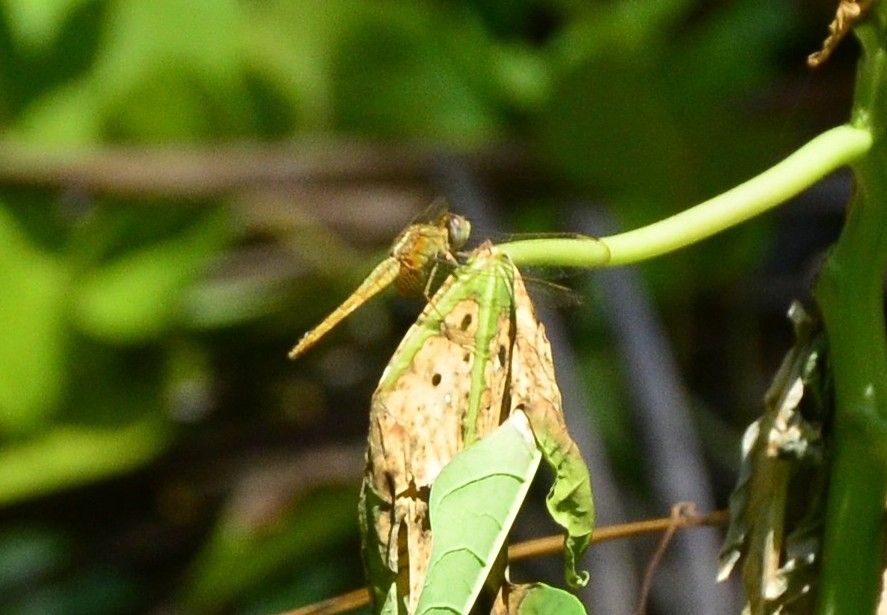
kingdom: Animalia
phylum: Arthropoda
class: Insecta
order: Odonata
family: Libellulidae
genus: Crocothemis
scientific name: Crocothemis servilia
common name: Scarlet skimmer
